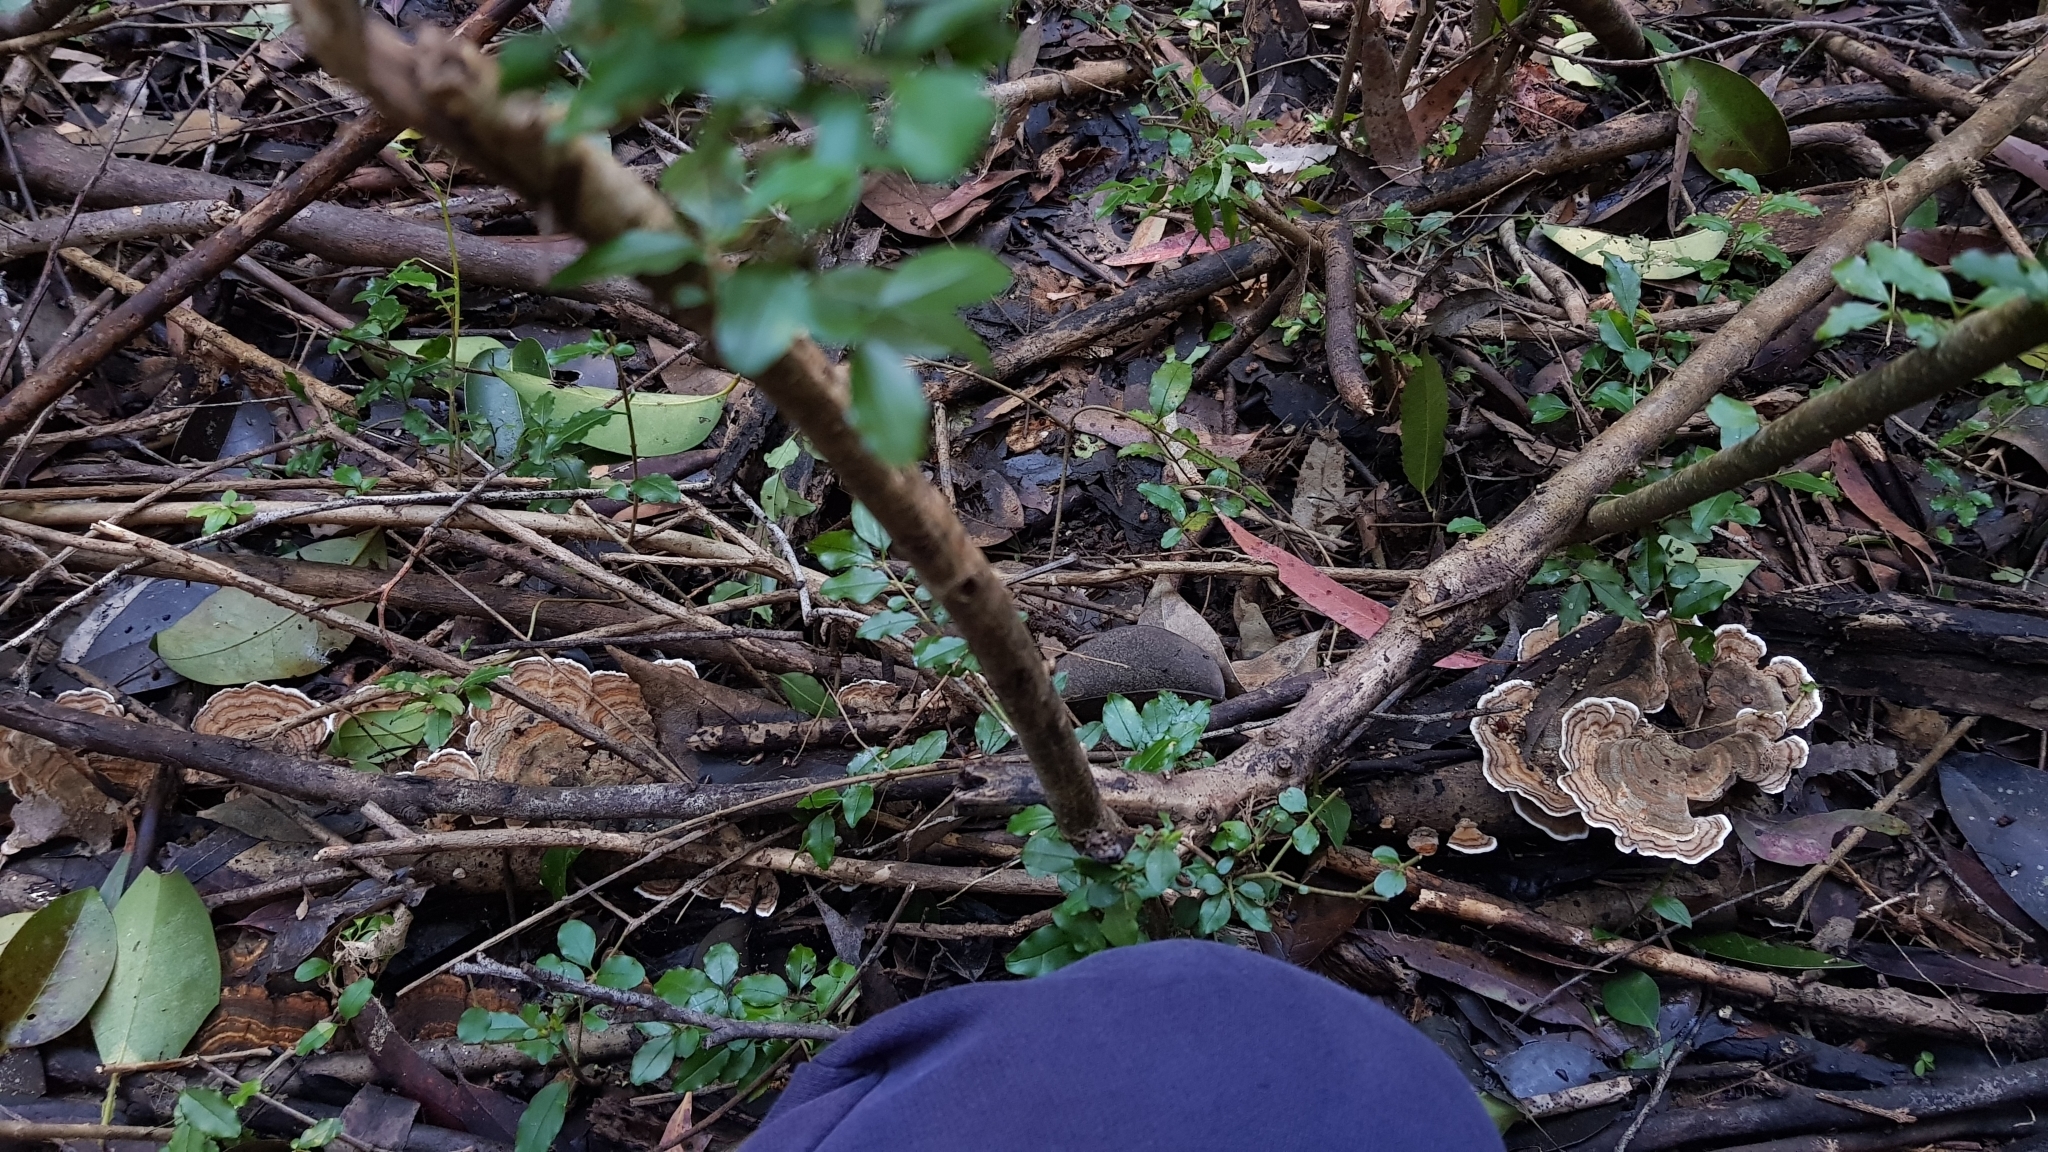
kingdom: Fungi
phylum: Basidiomycota
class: Agaricomycetes
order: Polyporales
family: Polyporaceae
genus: Trametes
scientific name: Trametes versicolor
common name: Turkeytail
